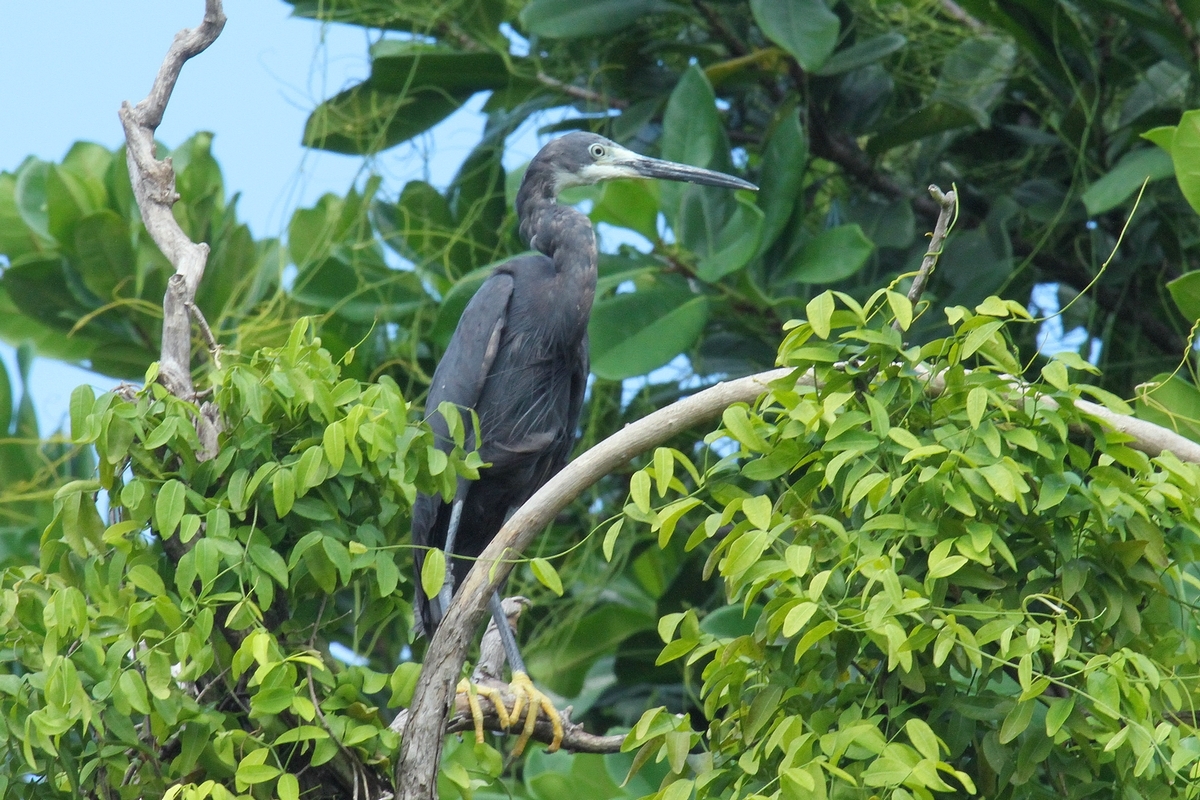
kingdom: Animalia
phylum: Chordata
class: Aves
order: Pelecaniformes
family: Ardeidae
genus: Egretta
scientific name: Egretta dimorpha
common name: Dimorphic egret
